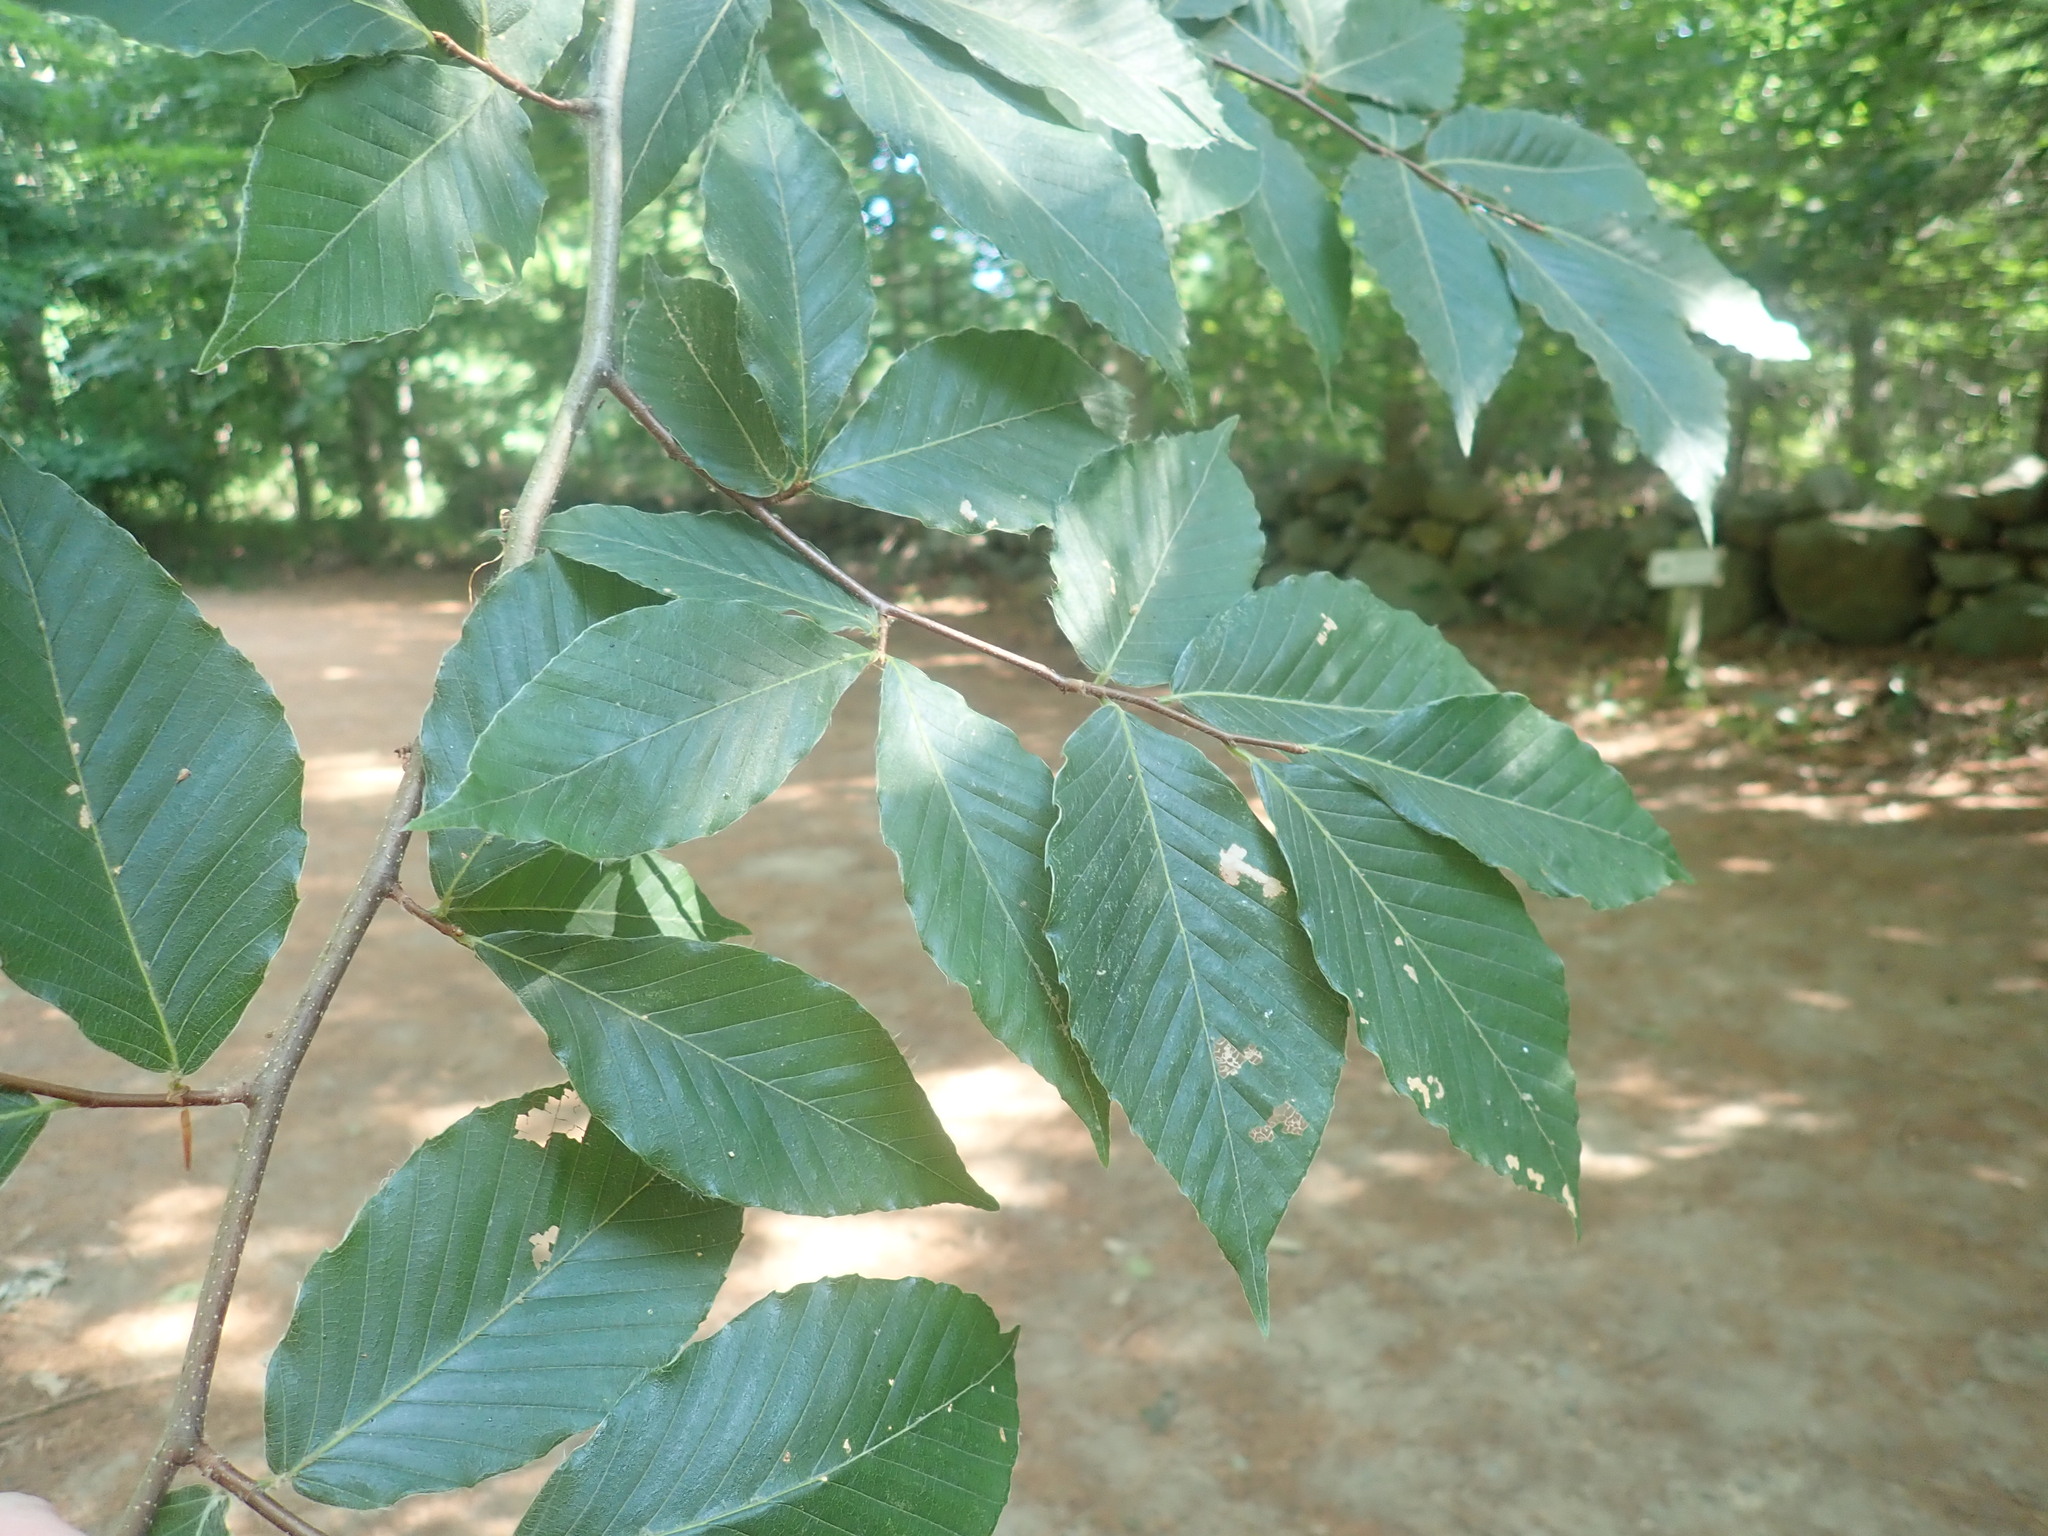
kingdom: Plantae
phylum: Tracheophyta
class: Magnoliopsida
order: Fagales
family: Fagaceae
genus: Fagus
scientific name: Fagus grandifolia
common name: American beech
